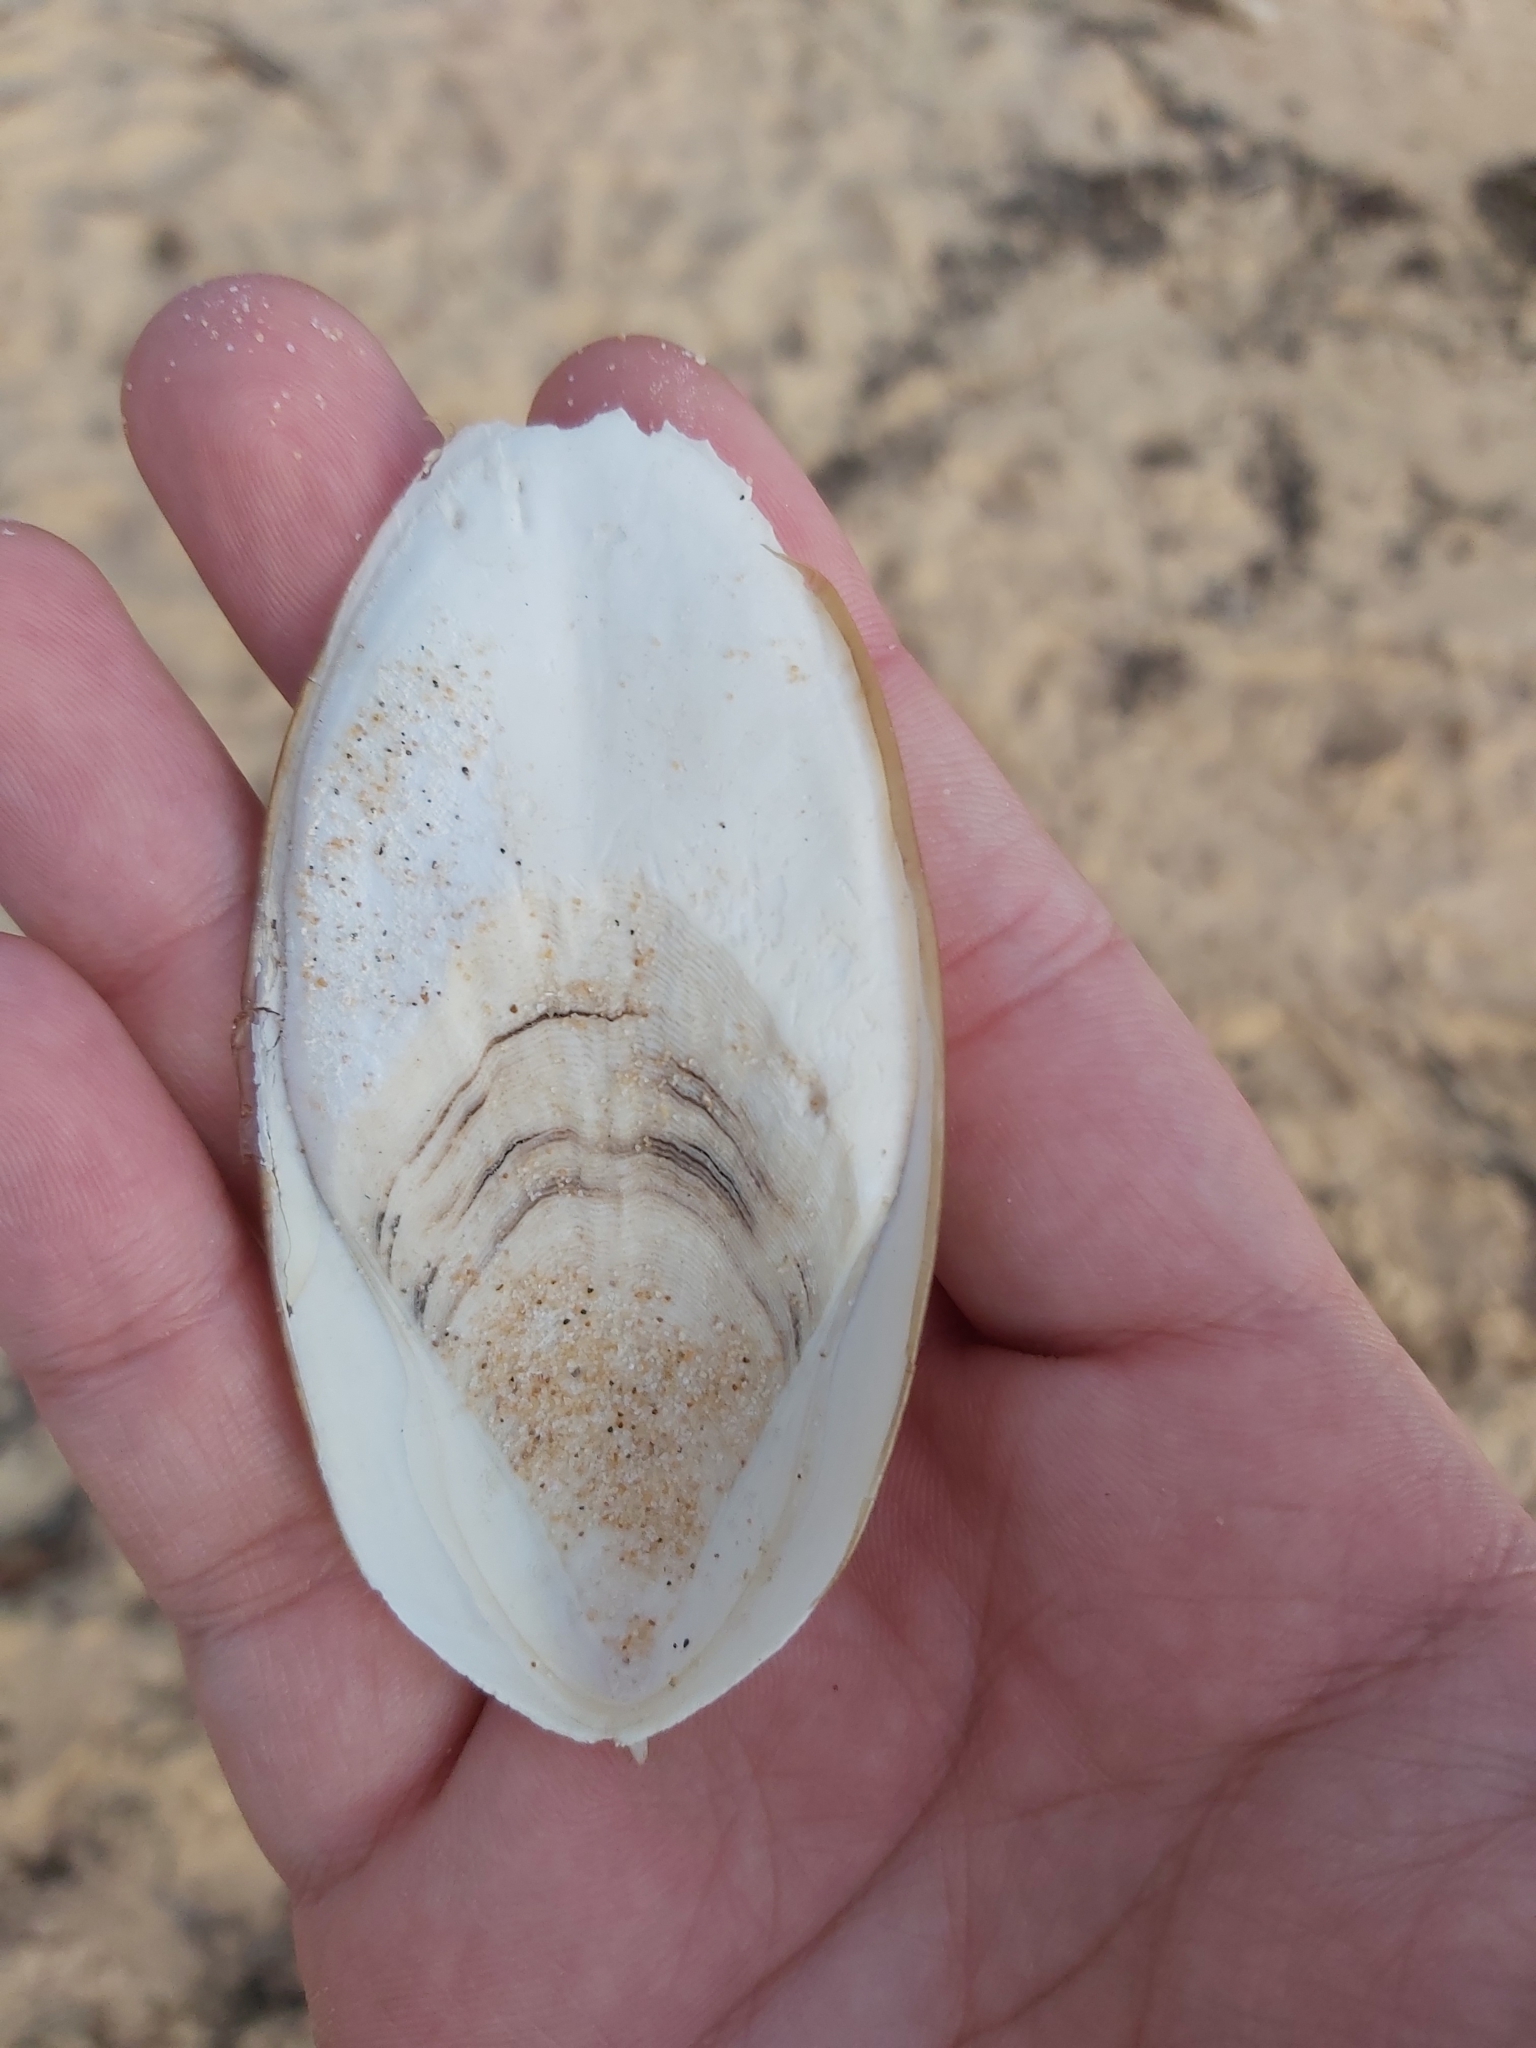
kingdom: Animalia
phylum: Mollusca
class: Cephalopoda
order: Sepiida
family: Sepiidae
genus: Ascarosepion
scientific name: Ascarosepion mestus
